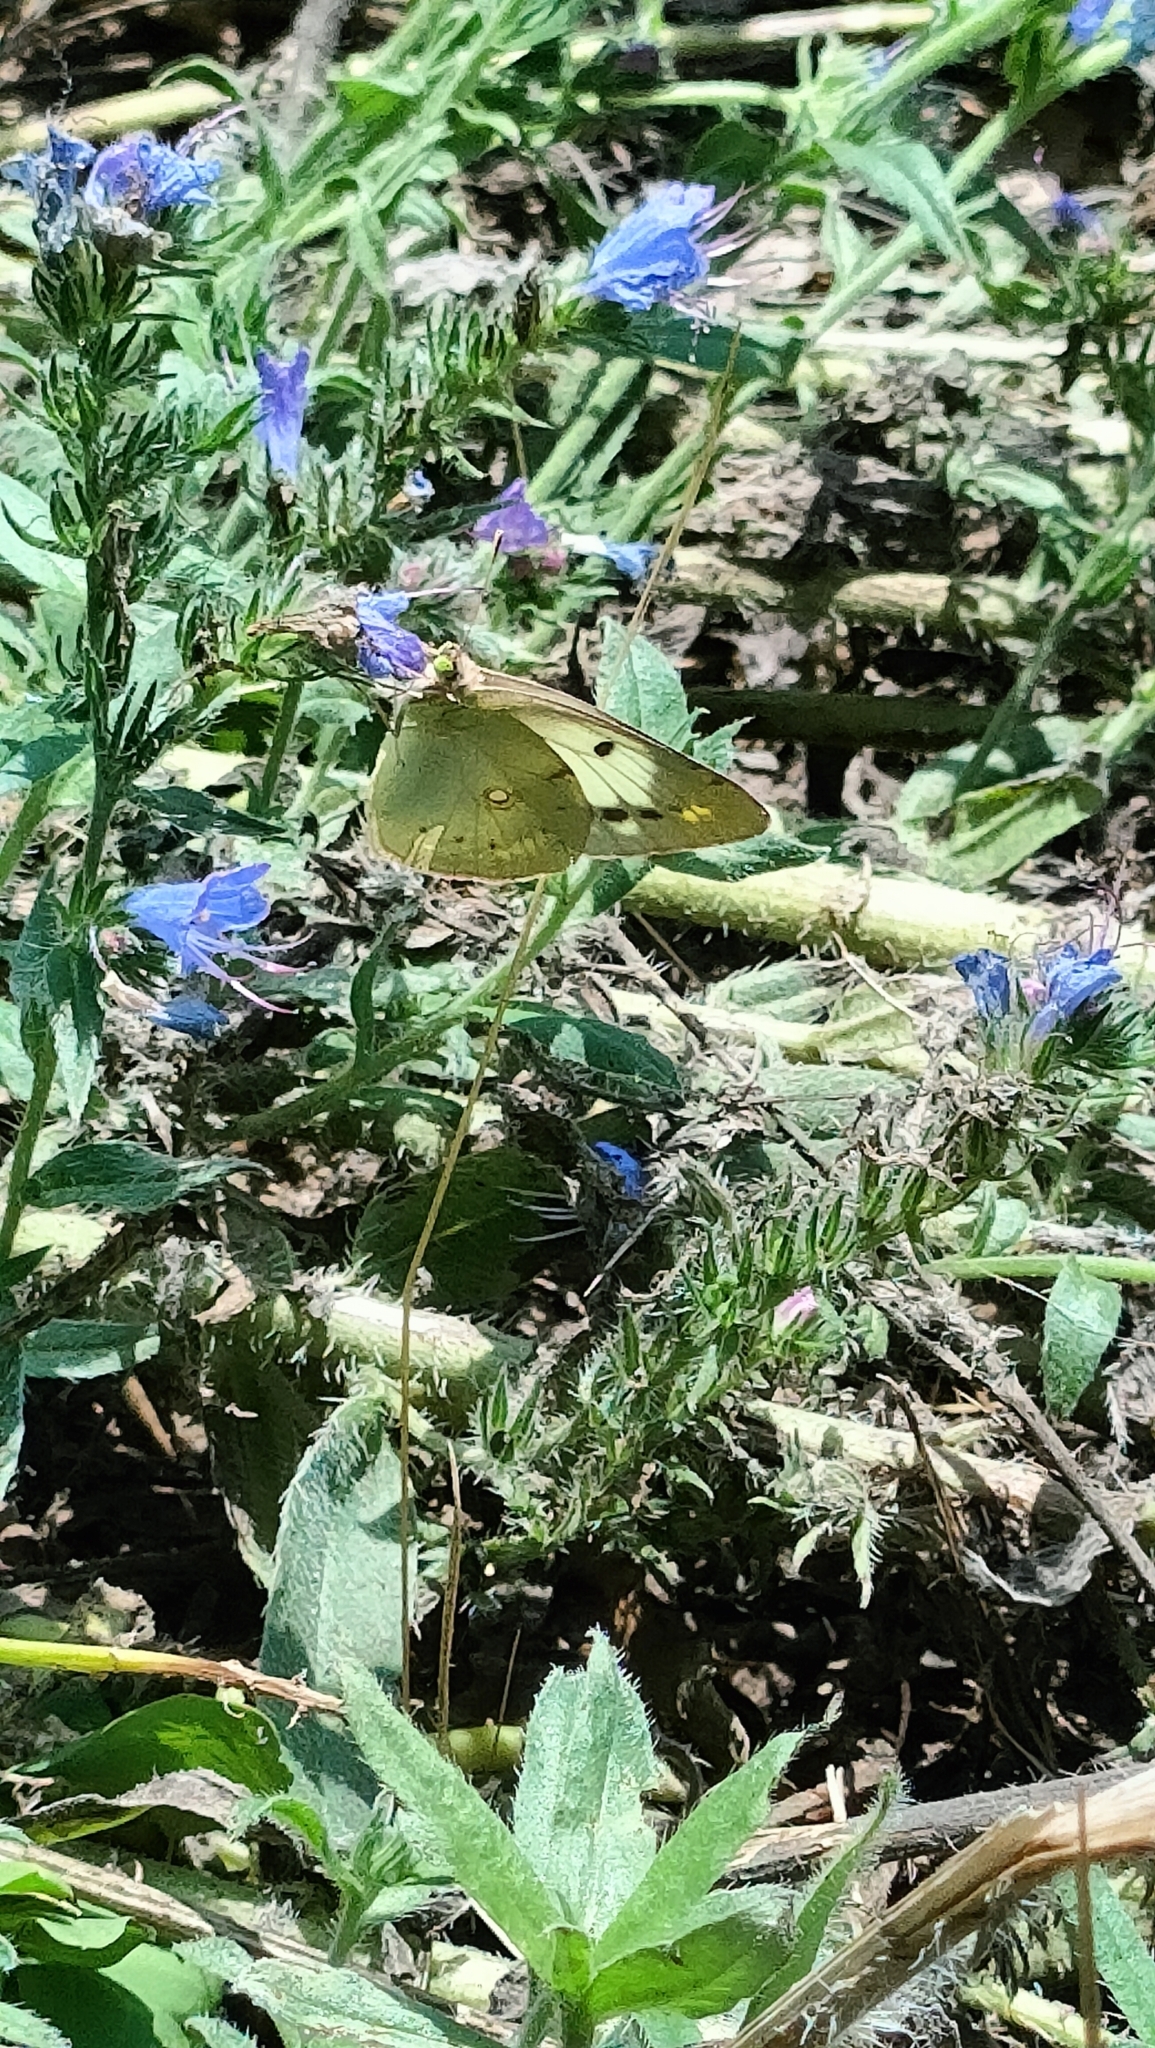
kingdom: Animalia
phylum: Arthropoda
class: Insecta
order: Lepidoptera
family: Pieridae
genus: Colias
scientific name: Colias croceus
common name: Clouded yellow
